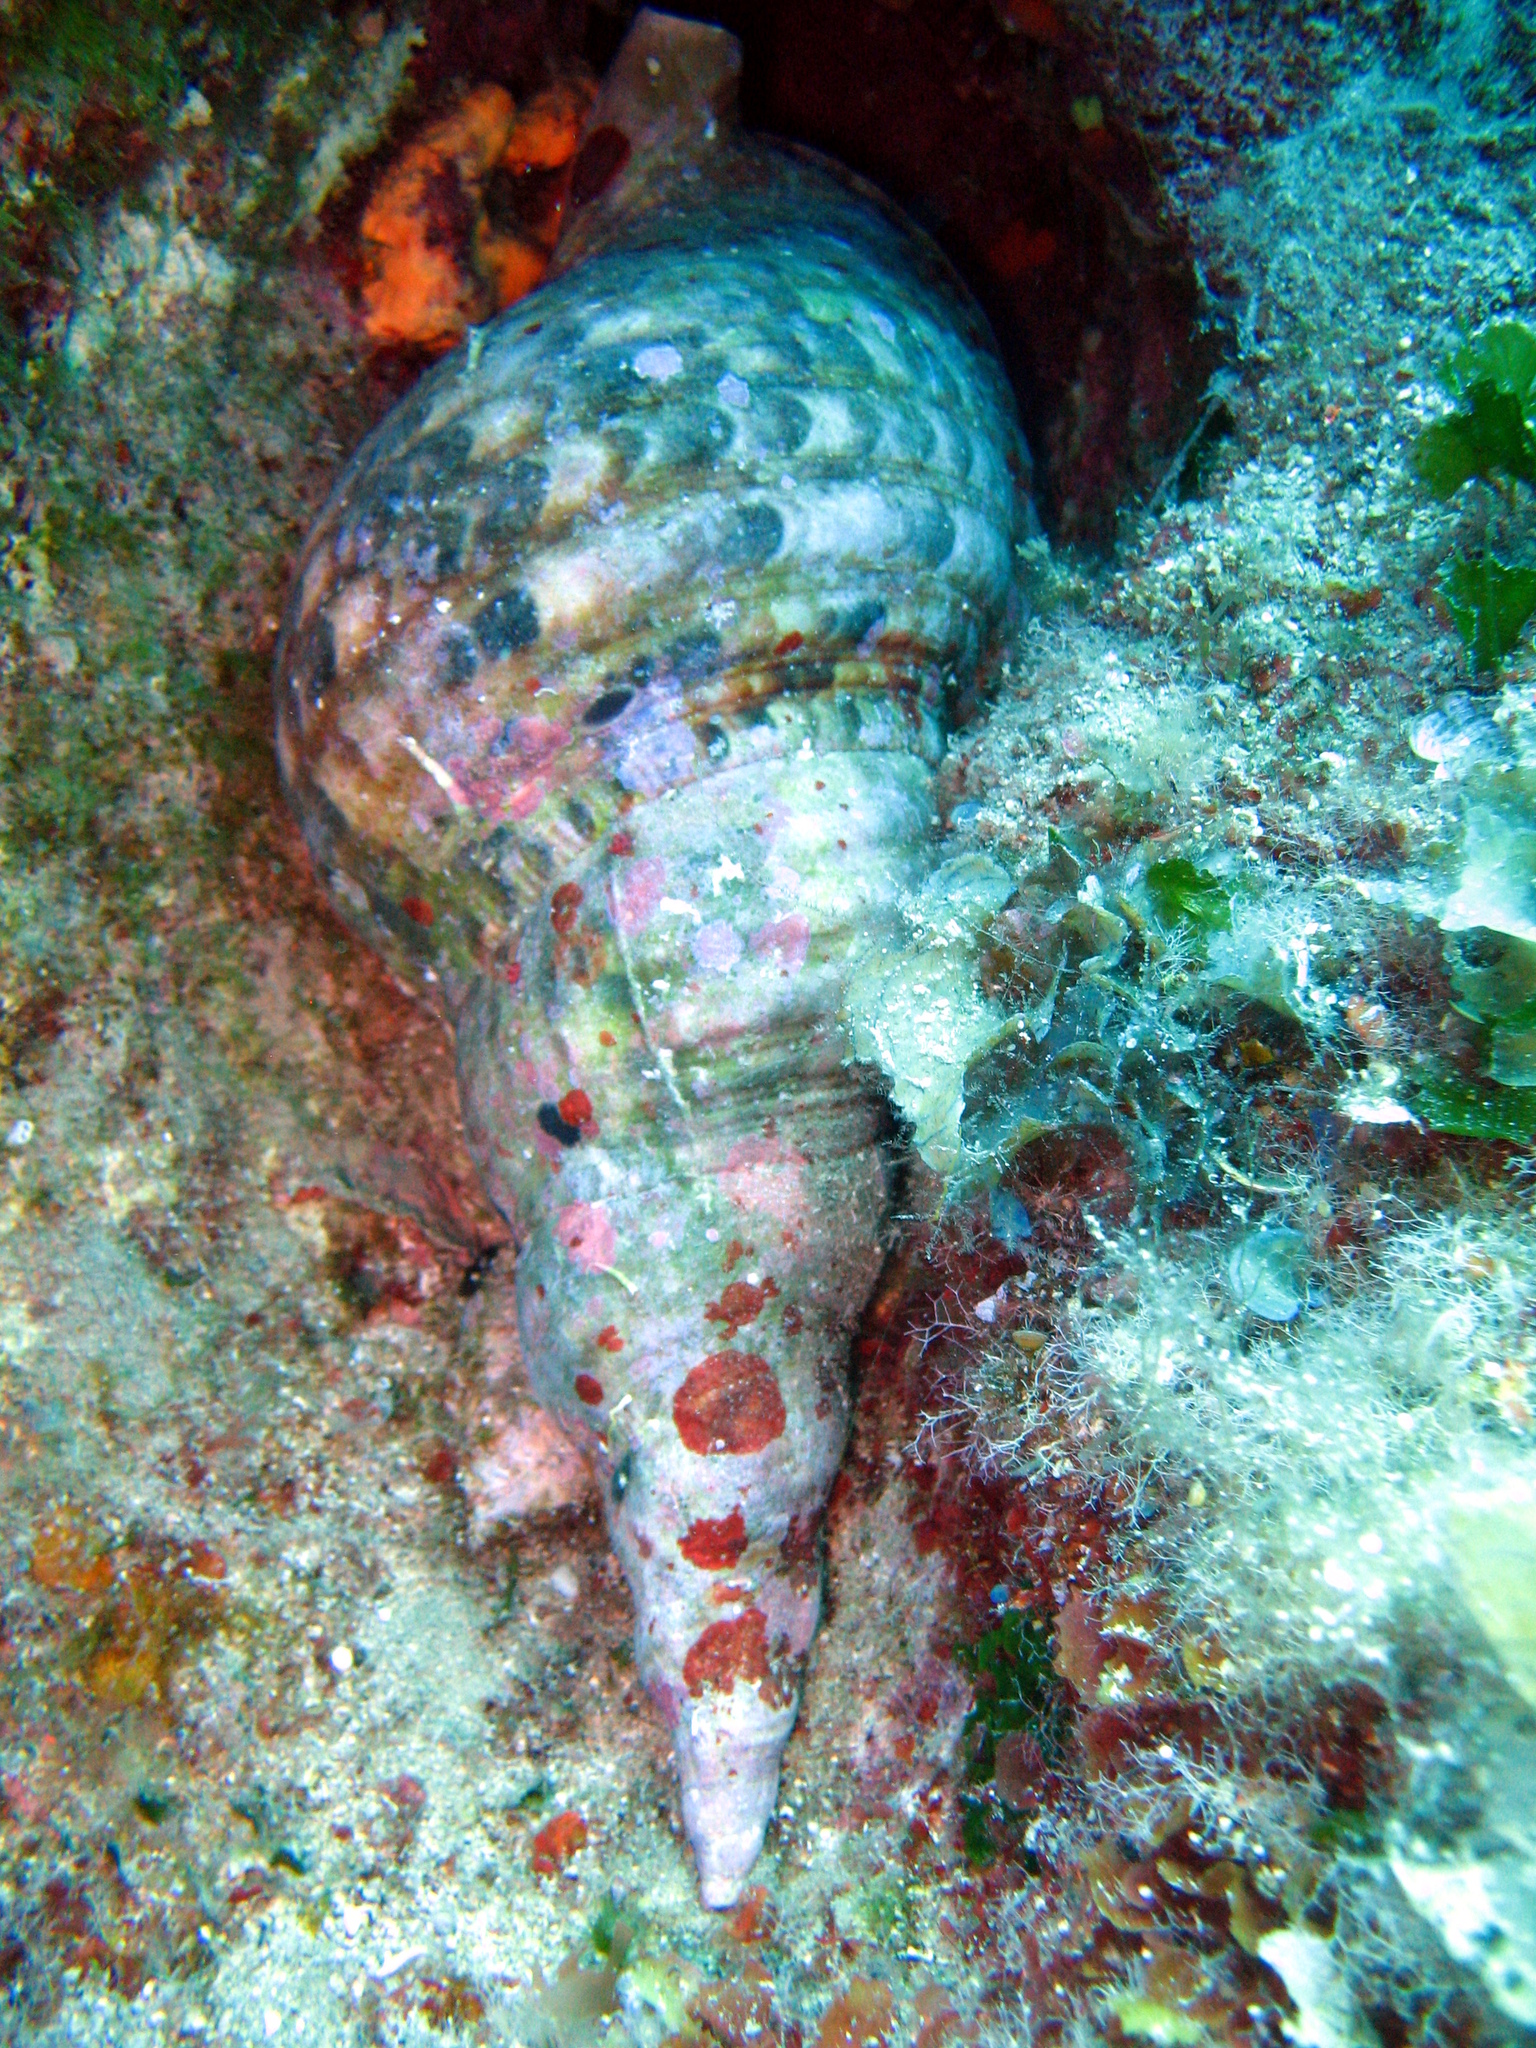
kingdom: Animalia
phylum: Mollusca
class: Gastropoda
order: Littorinimorpha
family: Charoniidae
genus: Charonia
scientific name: Charonia variegata
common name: Atlantic triton
